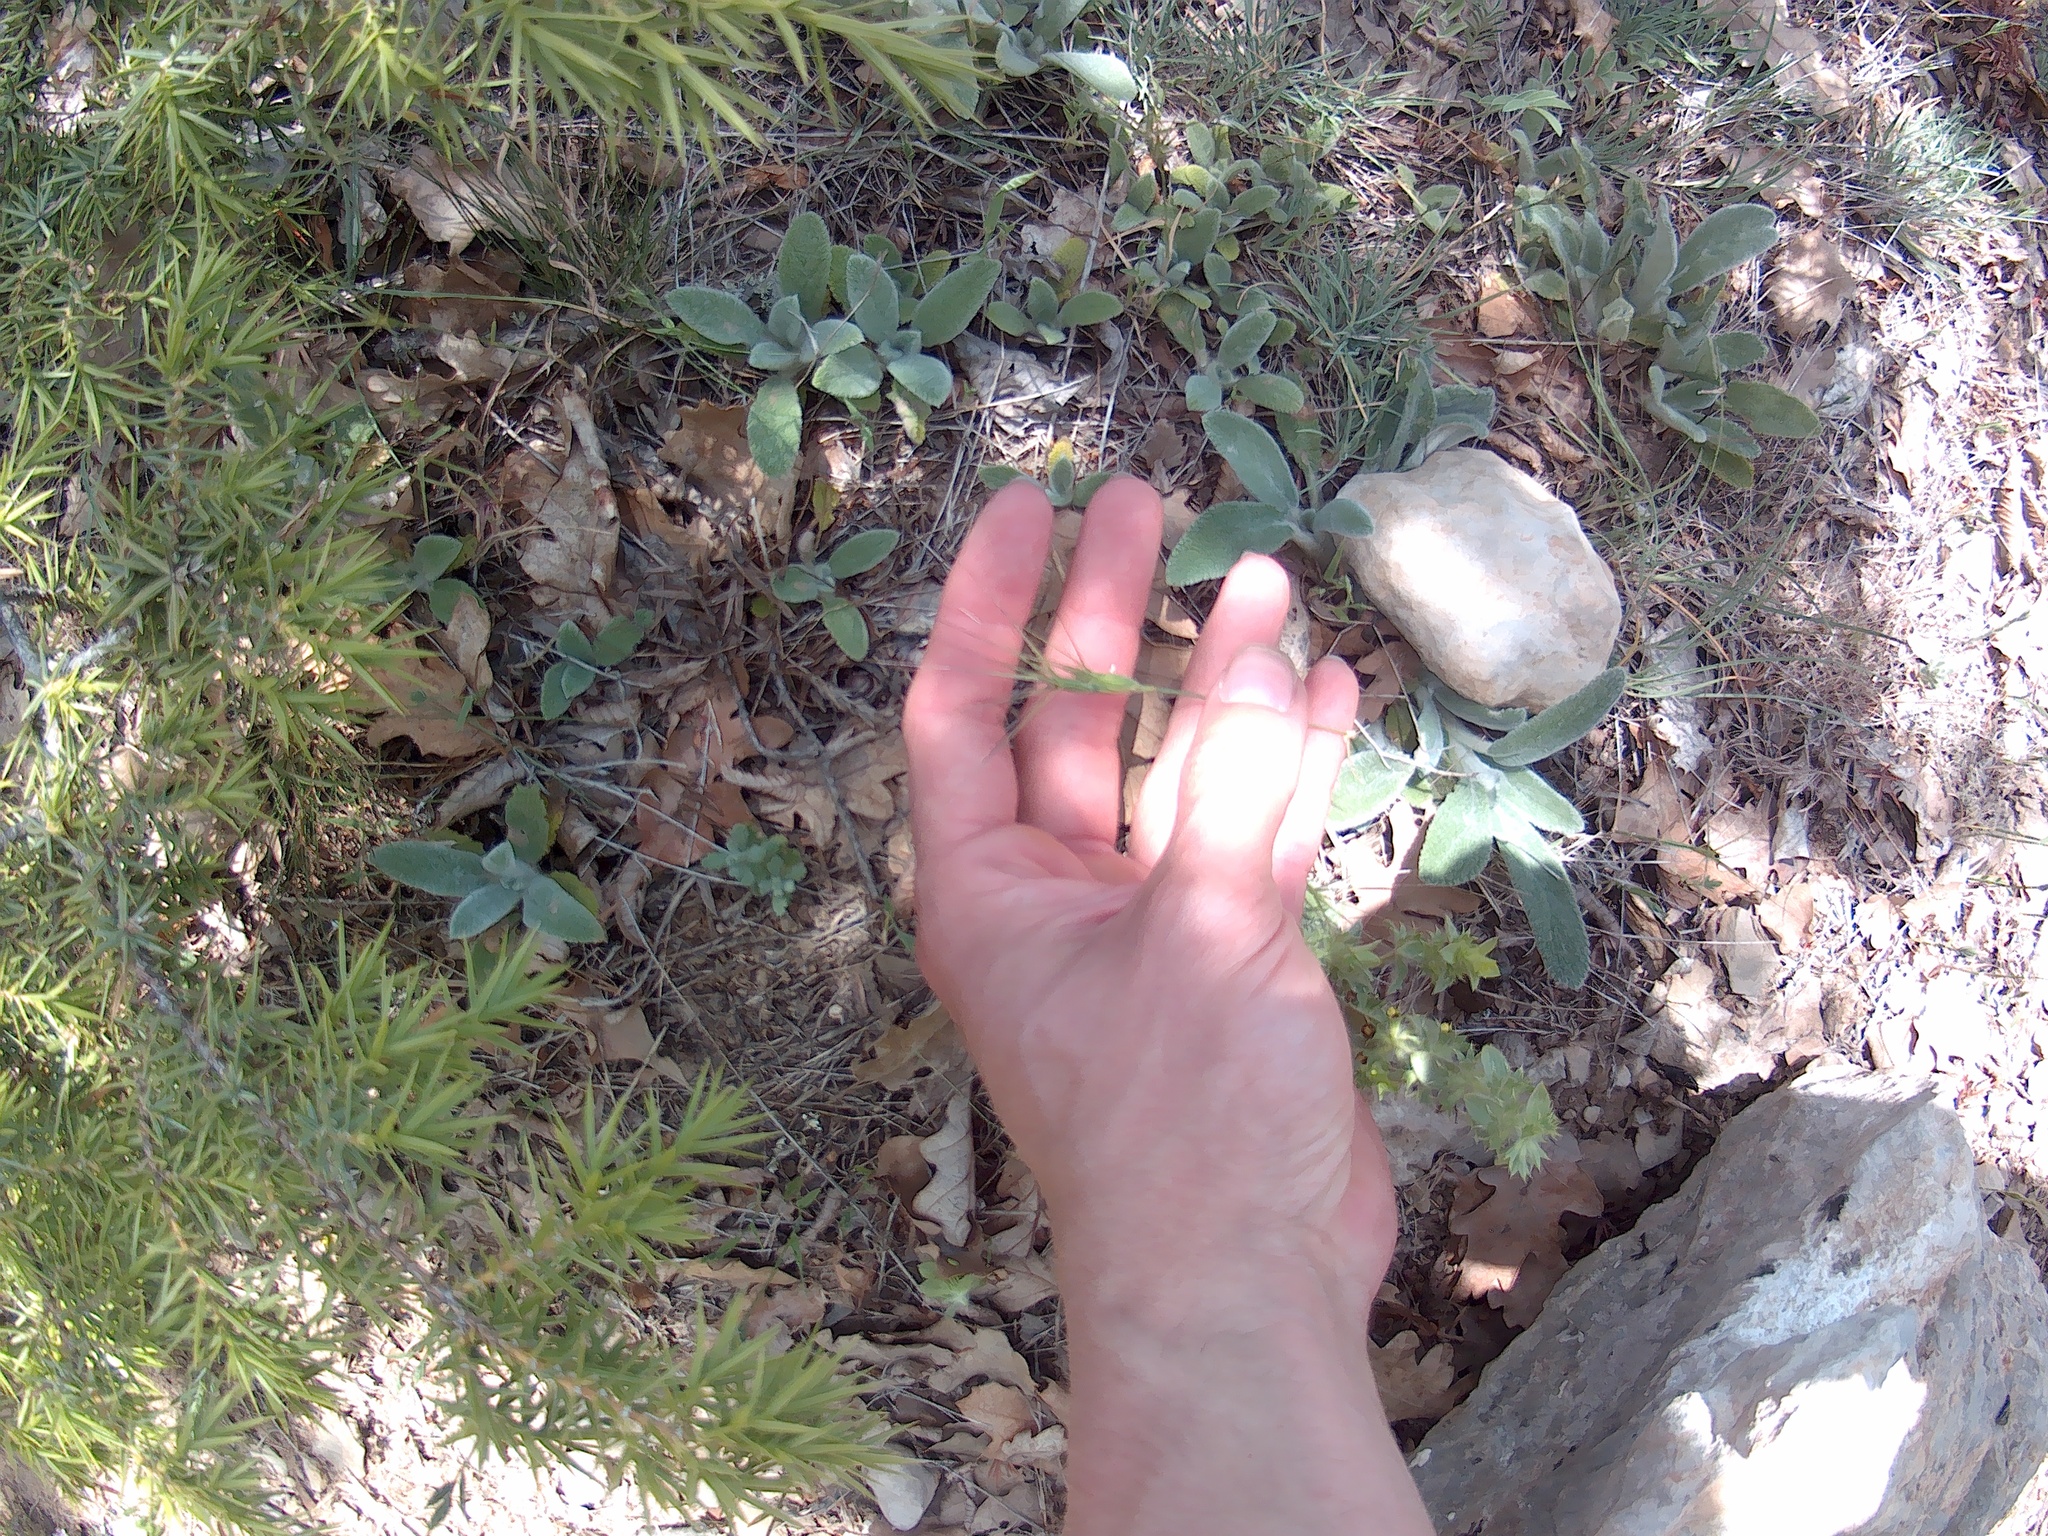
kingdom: Plantae
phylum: Tracheophyta
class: Liliopsida
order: Poales
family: Poaceae
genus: Aegilops
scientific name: Aegilops biuncialis
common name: Mediterranean aegilops
